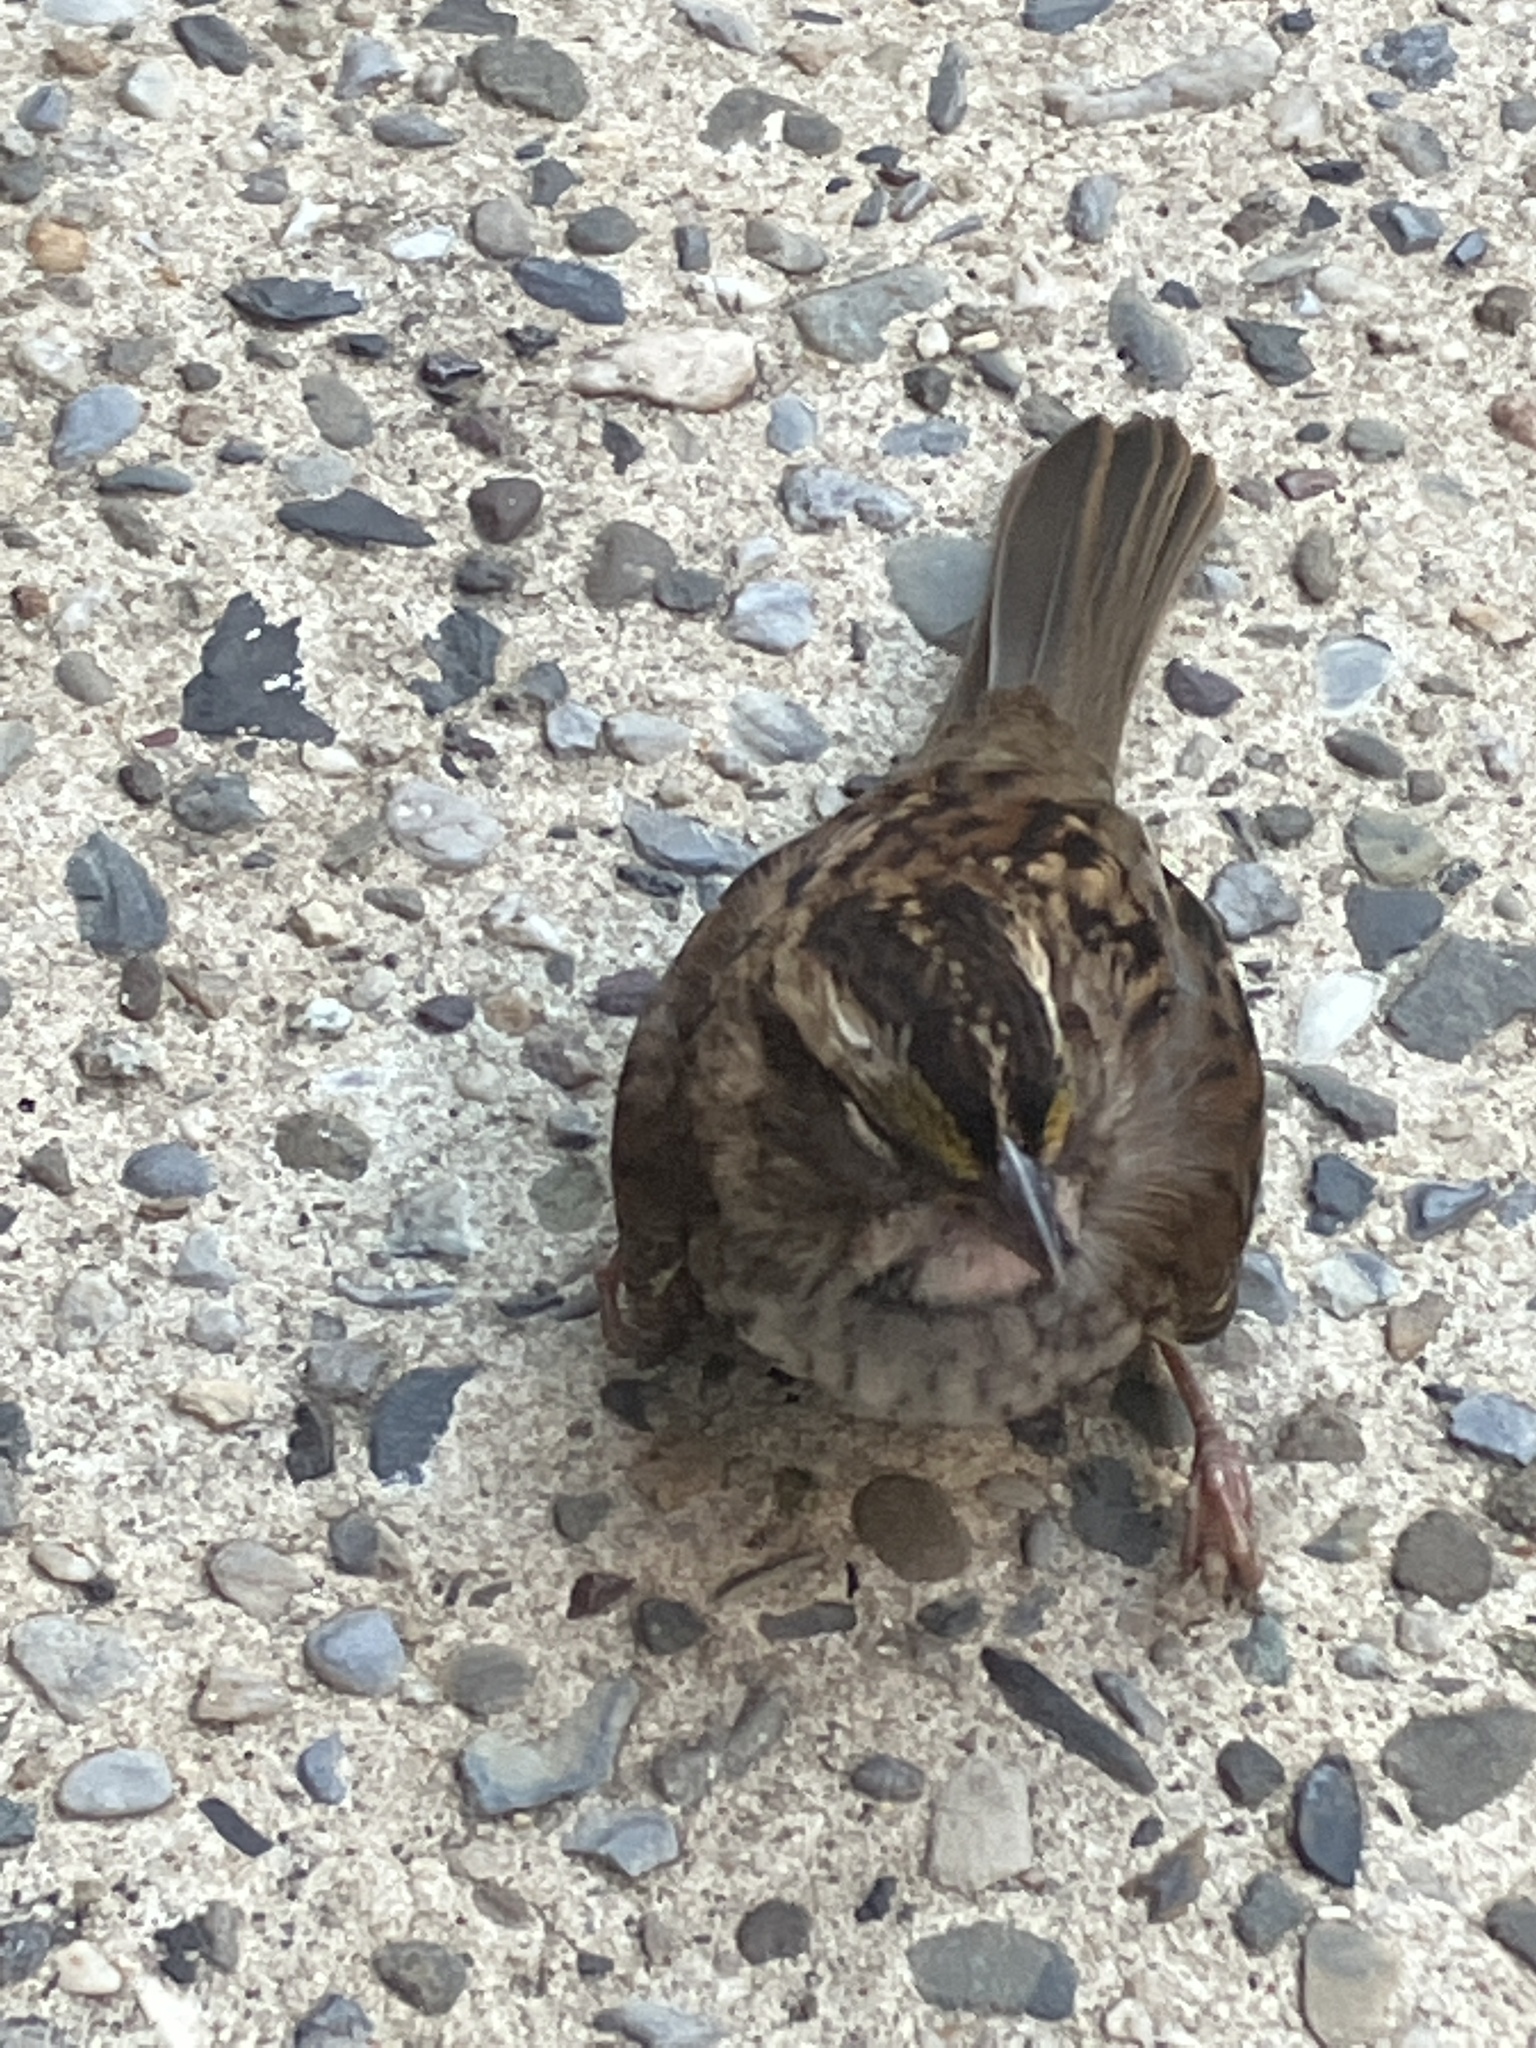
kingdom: Animalia
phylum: Chordata
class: Aves
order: Passeriformes
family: Passerellidae
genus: Zonotrichia
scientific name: Zonotrichia albicollis
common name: White-throated sparrow
